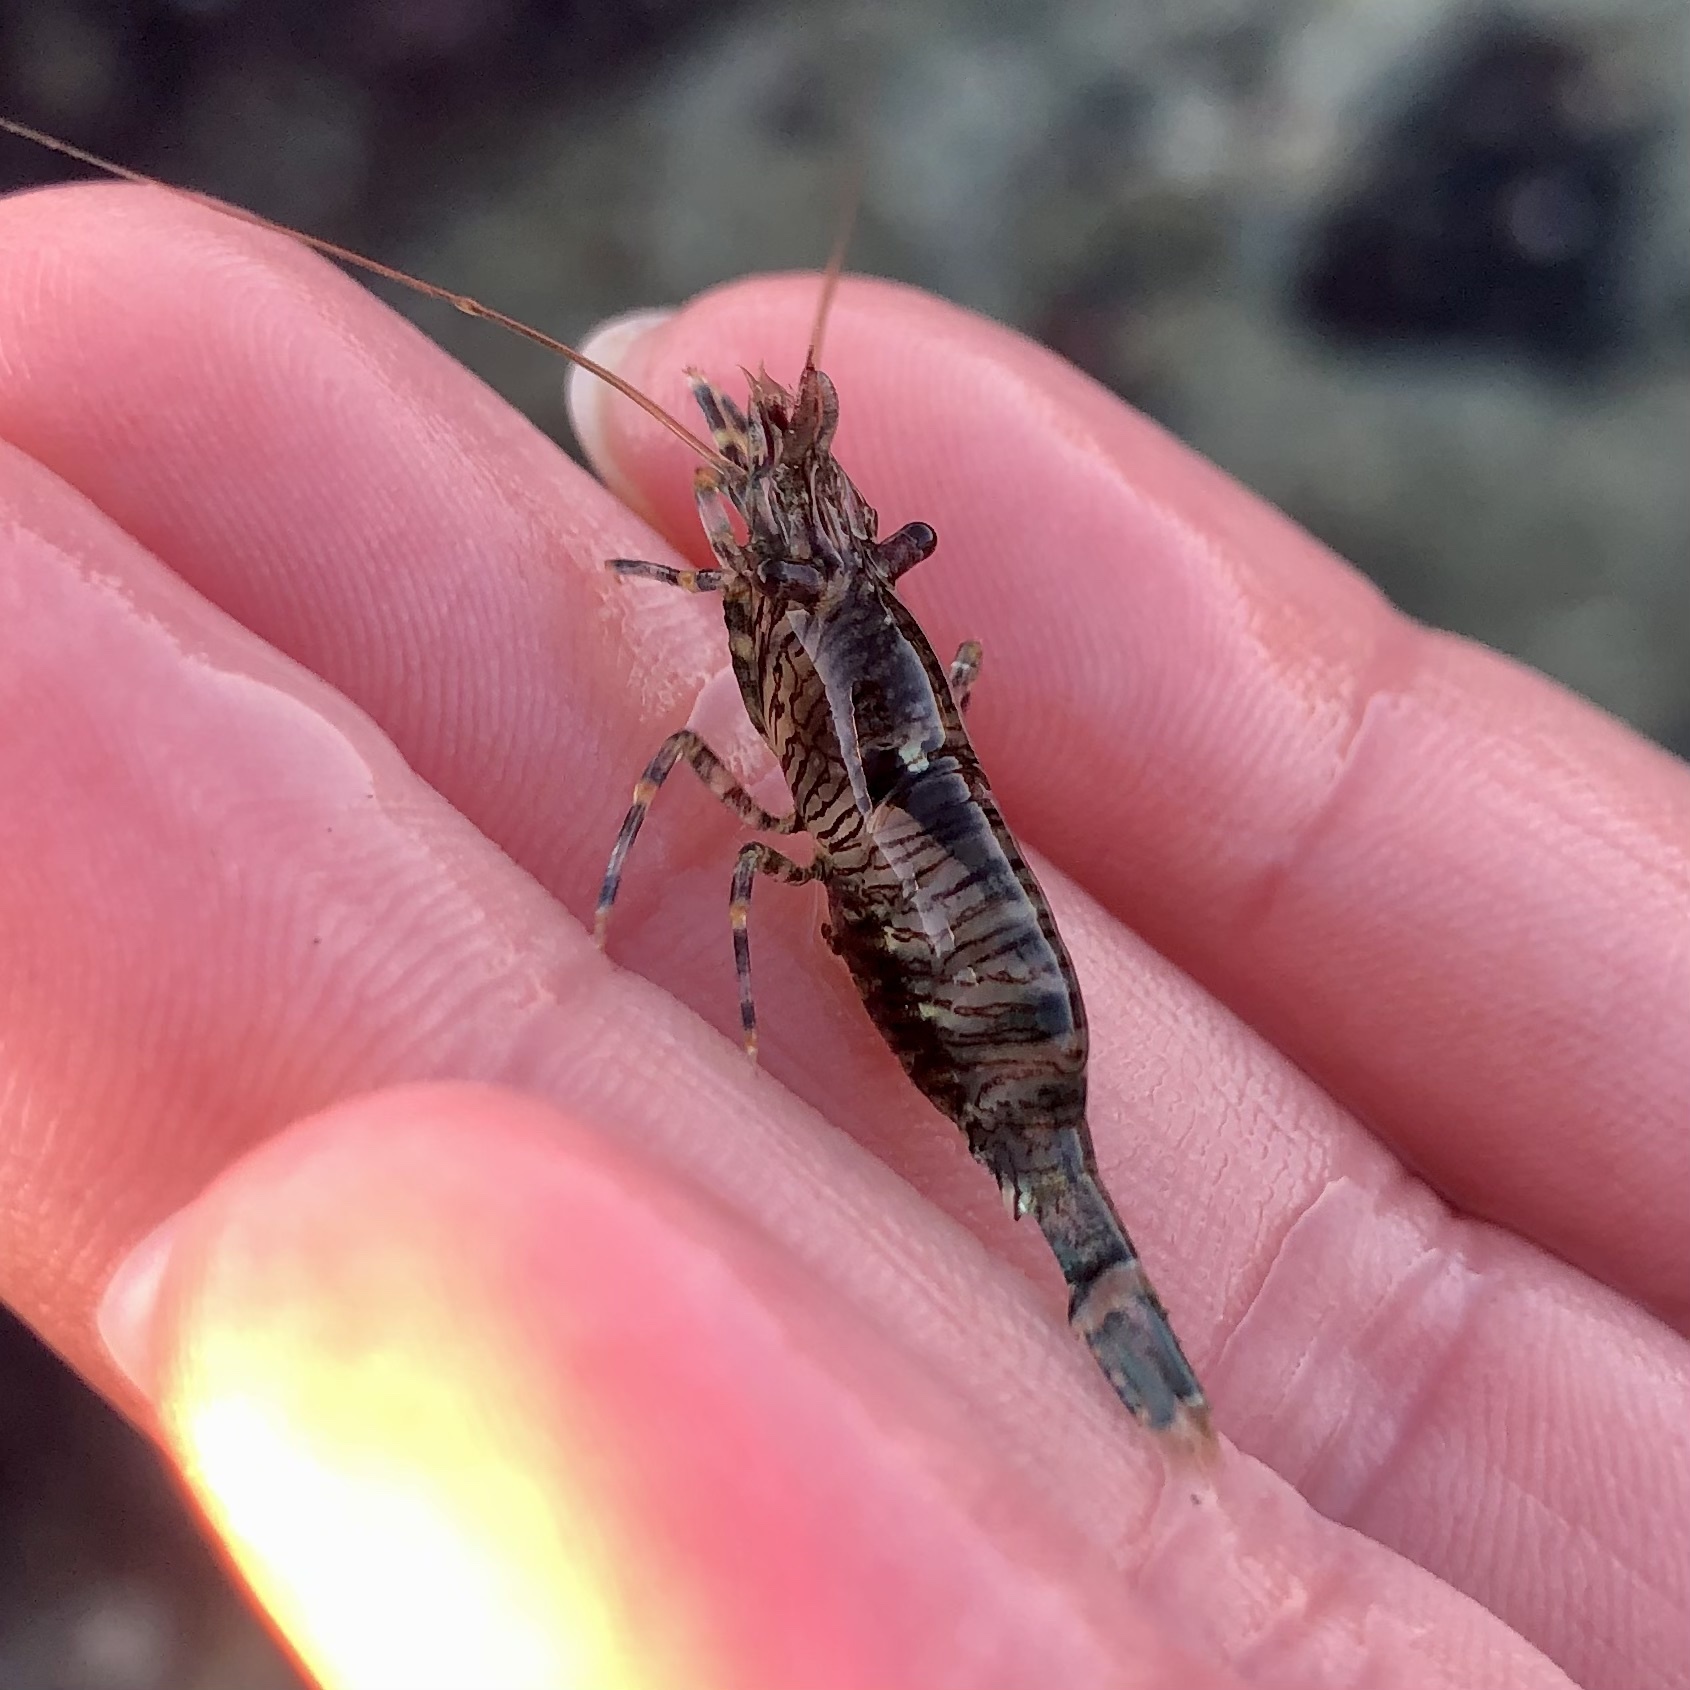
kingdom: Animalia
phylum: Arthropoda
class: Malacostraca
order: Decapoda
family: Thoridae
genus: Heptacarpus
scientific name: Heptacarpus sitchensis
